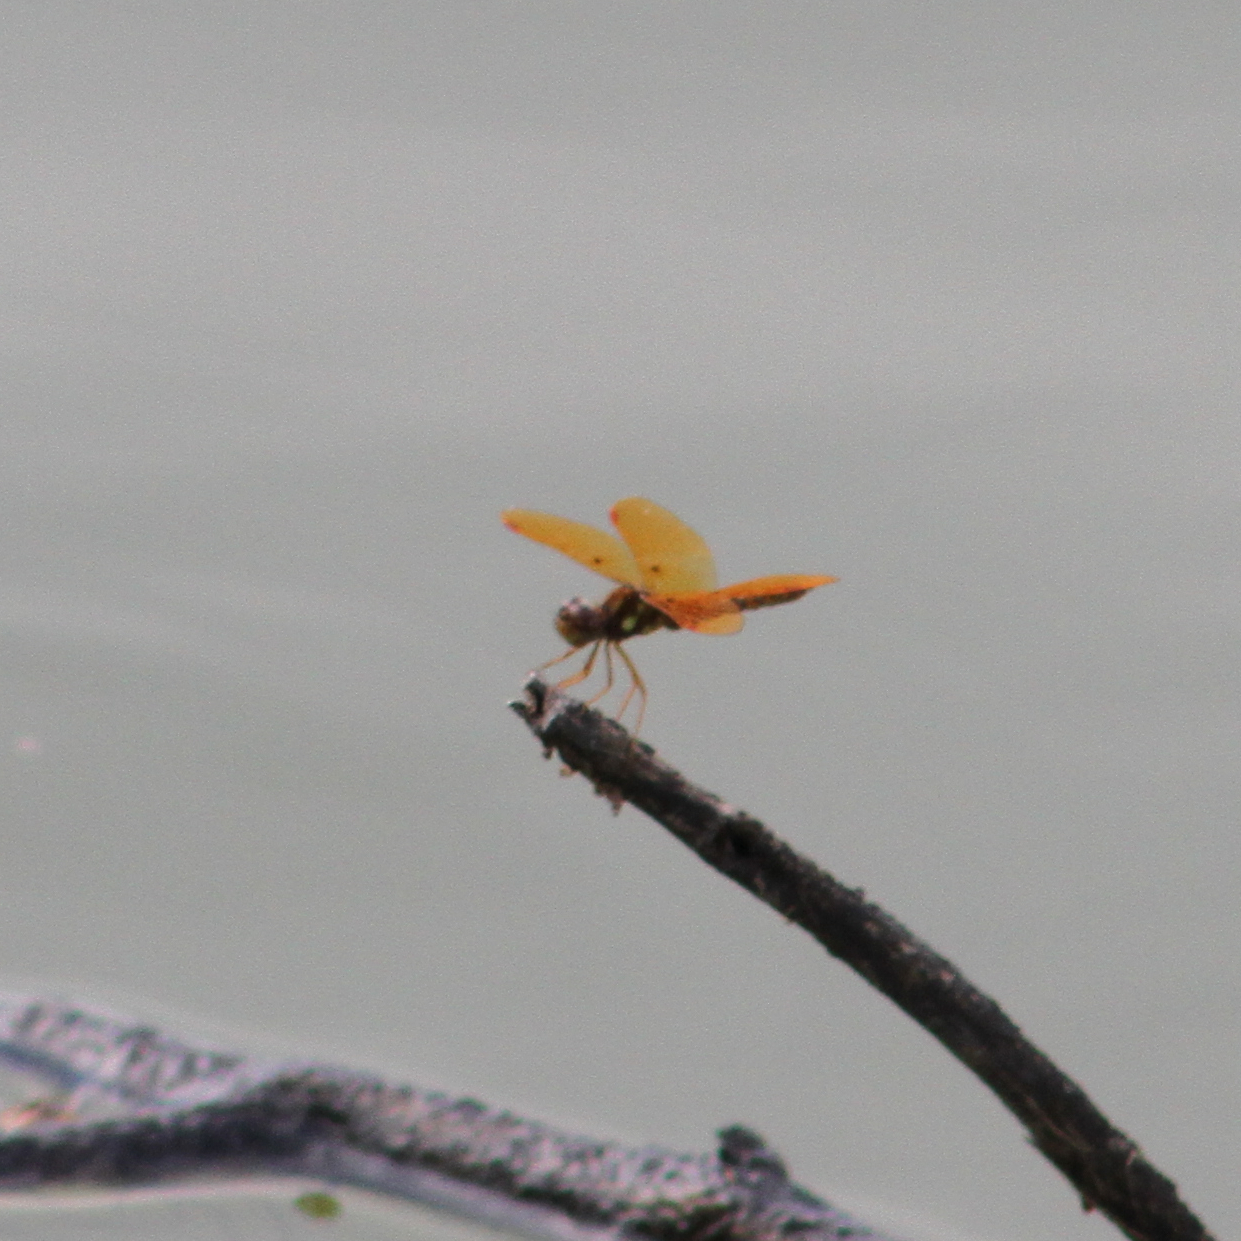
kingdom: Animalia
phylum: Arthropoda
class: Insecta
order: Odonata
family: Libellulidae
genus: Perithemis
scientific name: Perithemis tenera
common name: Eastern amberwing
